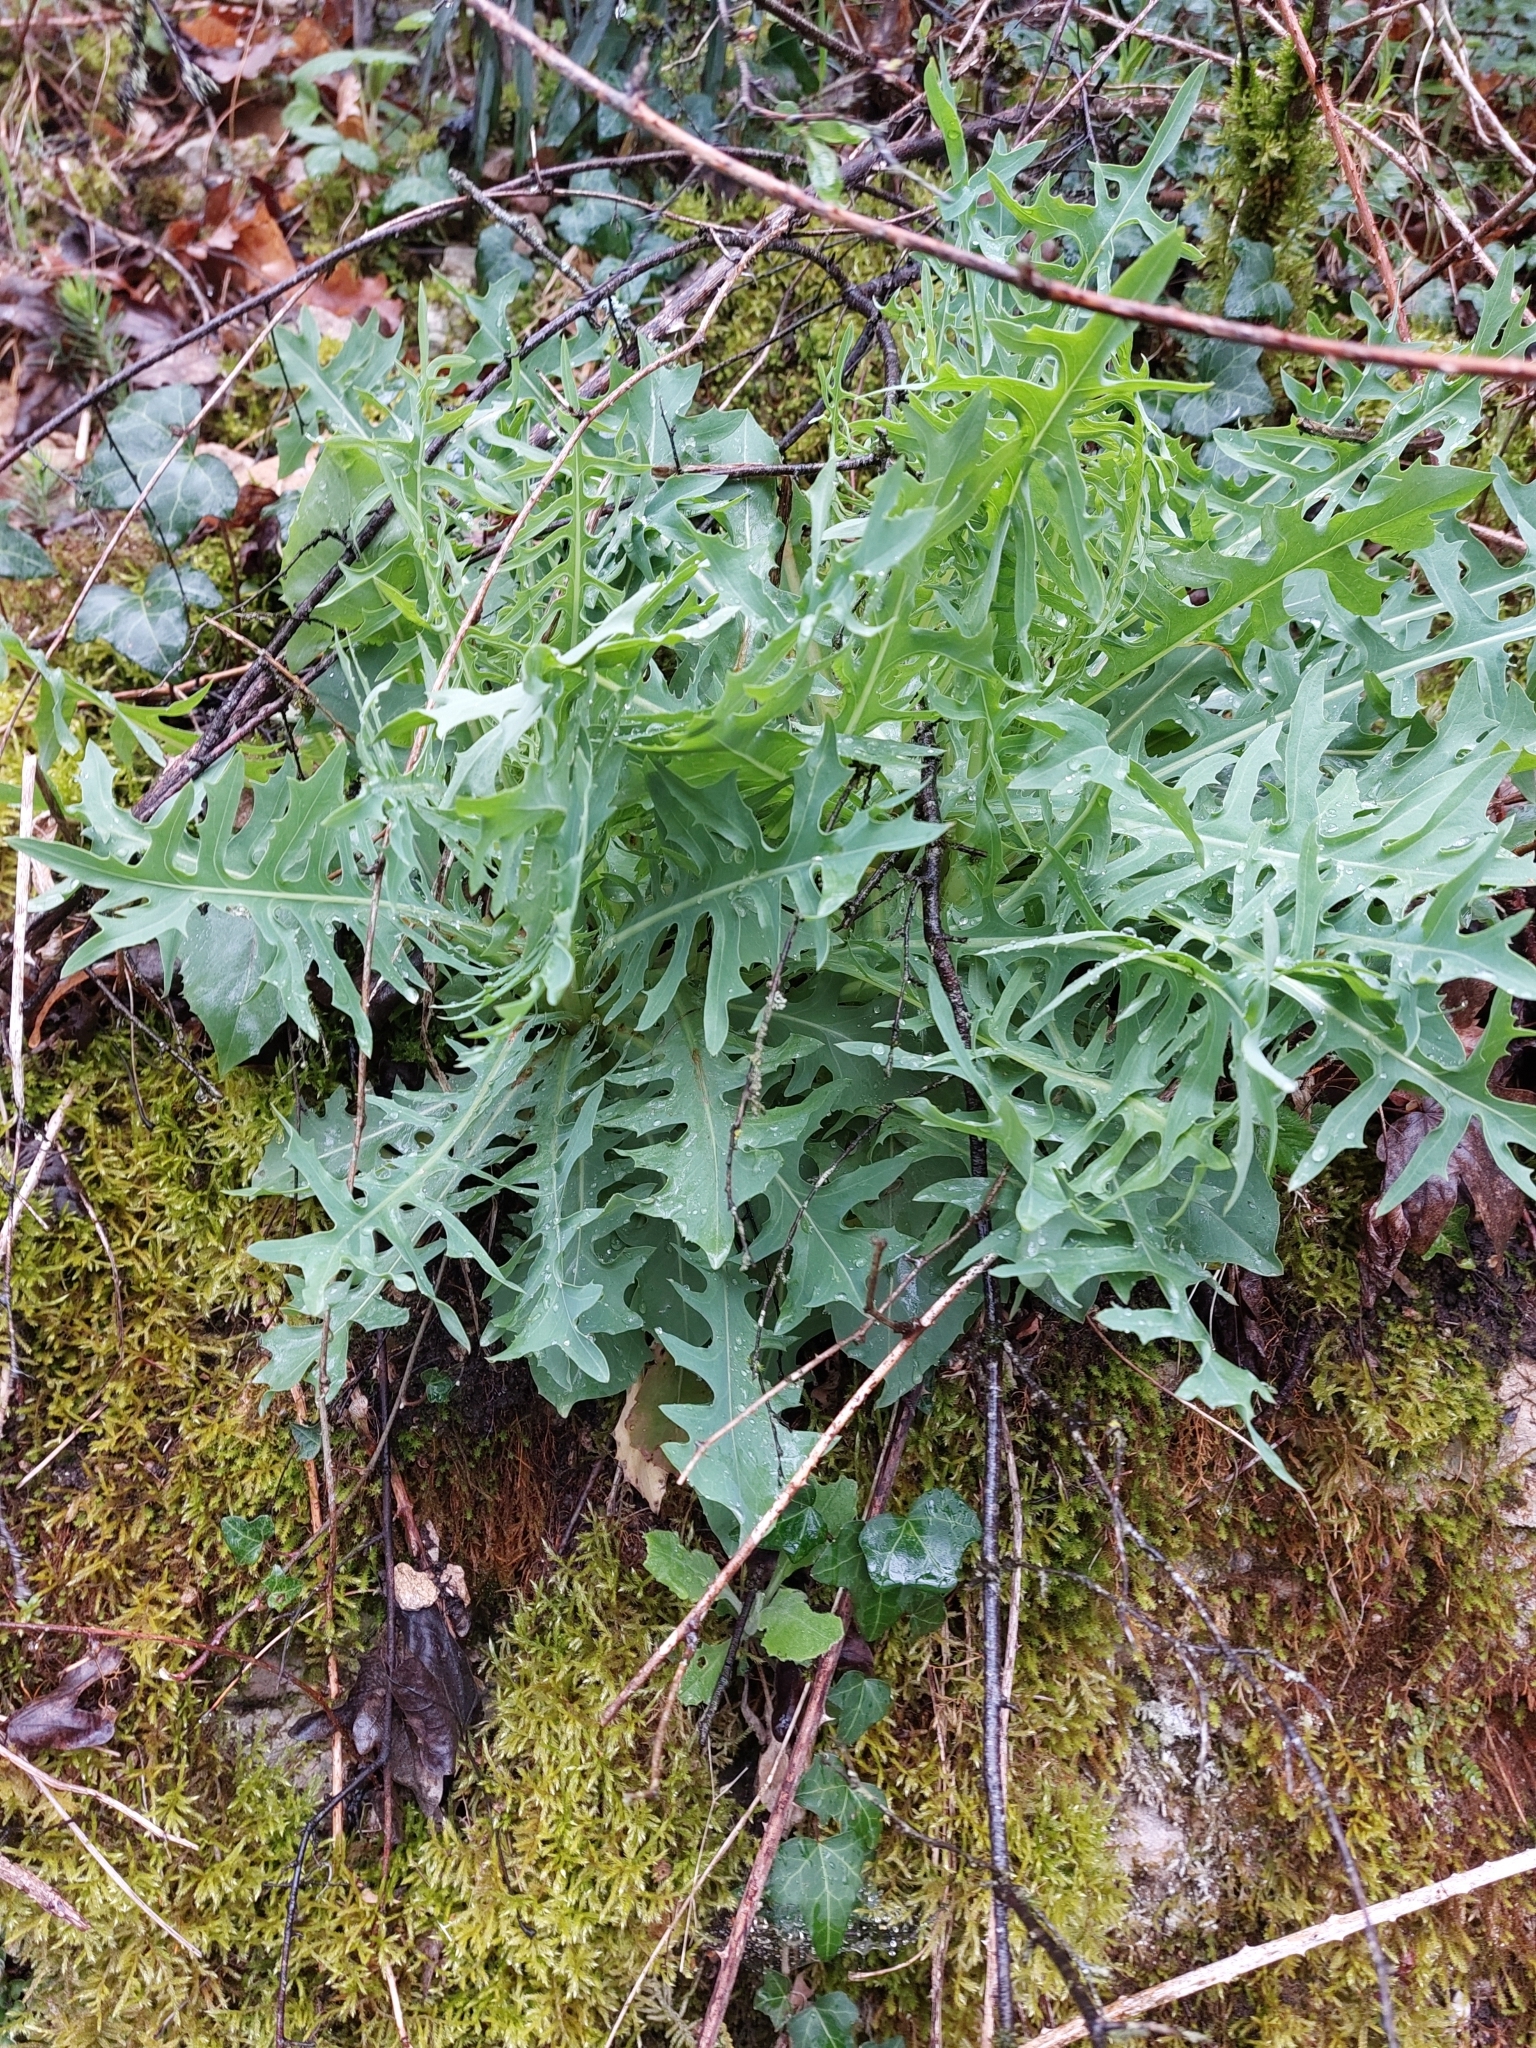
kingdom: Plantae
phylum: Tracheophyta
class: Magnoliopsida
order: Asterales
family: Asteraceae
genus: Lactuca
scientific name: Lactuca perennis
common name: Mountain lettuce
